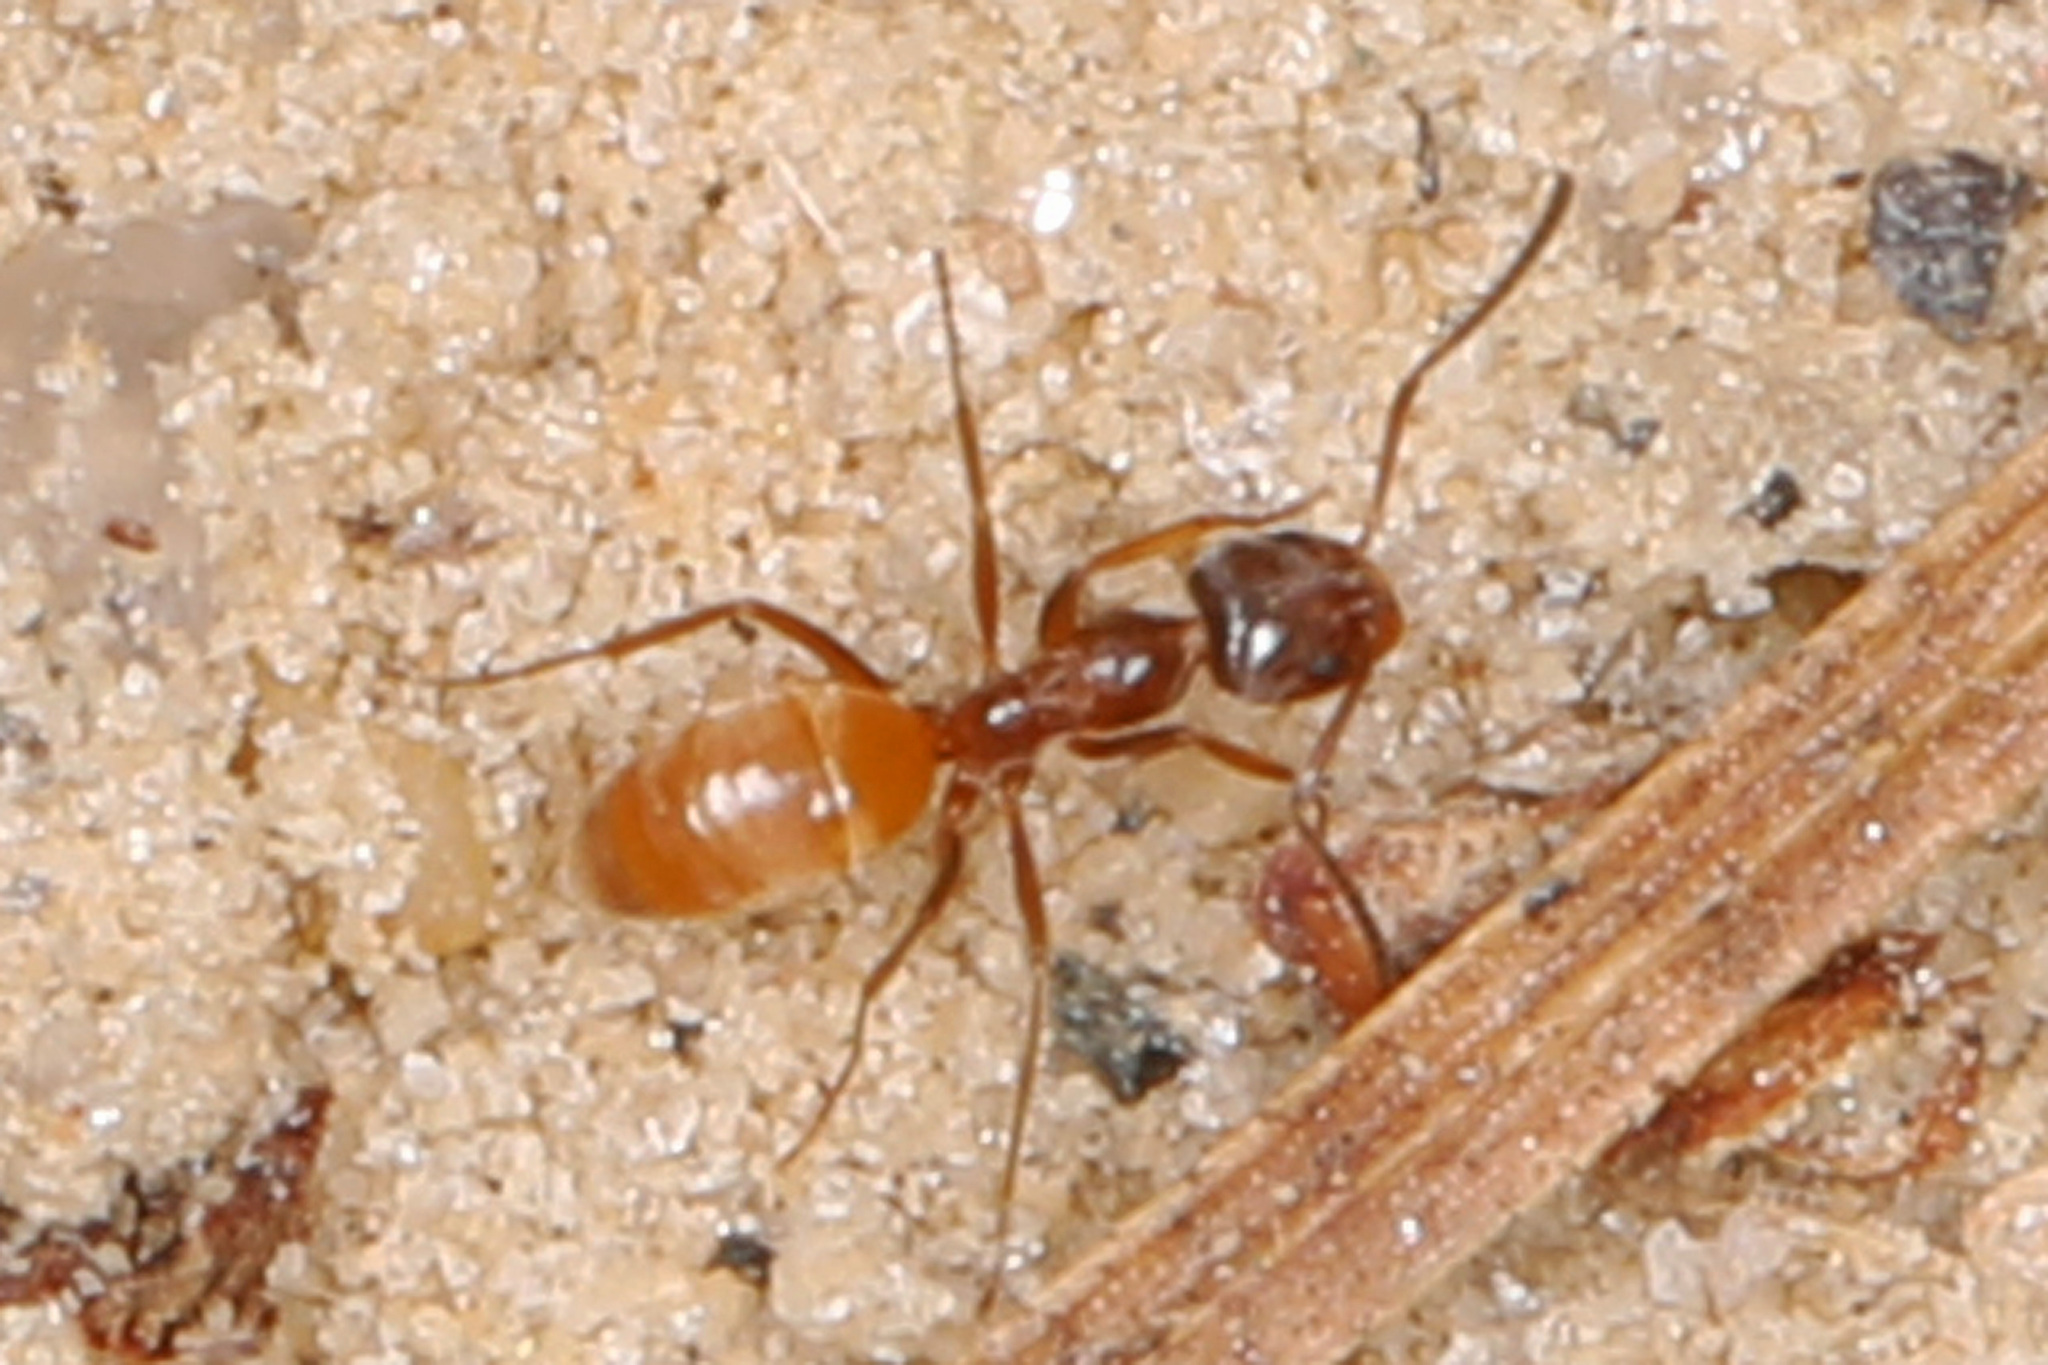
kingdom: Animalia
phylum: Arthropoda
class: Insecta
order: Hymenoptera
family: Formicidae
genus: Forelius
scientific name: Forelius pruinosus
